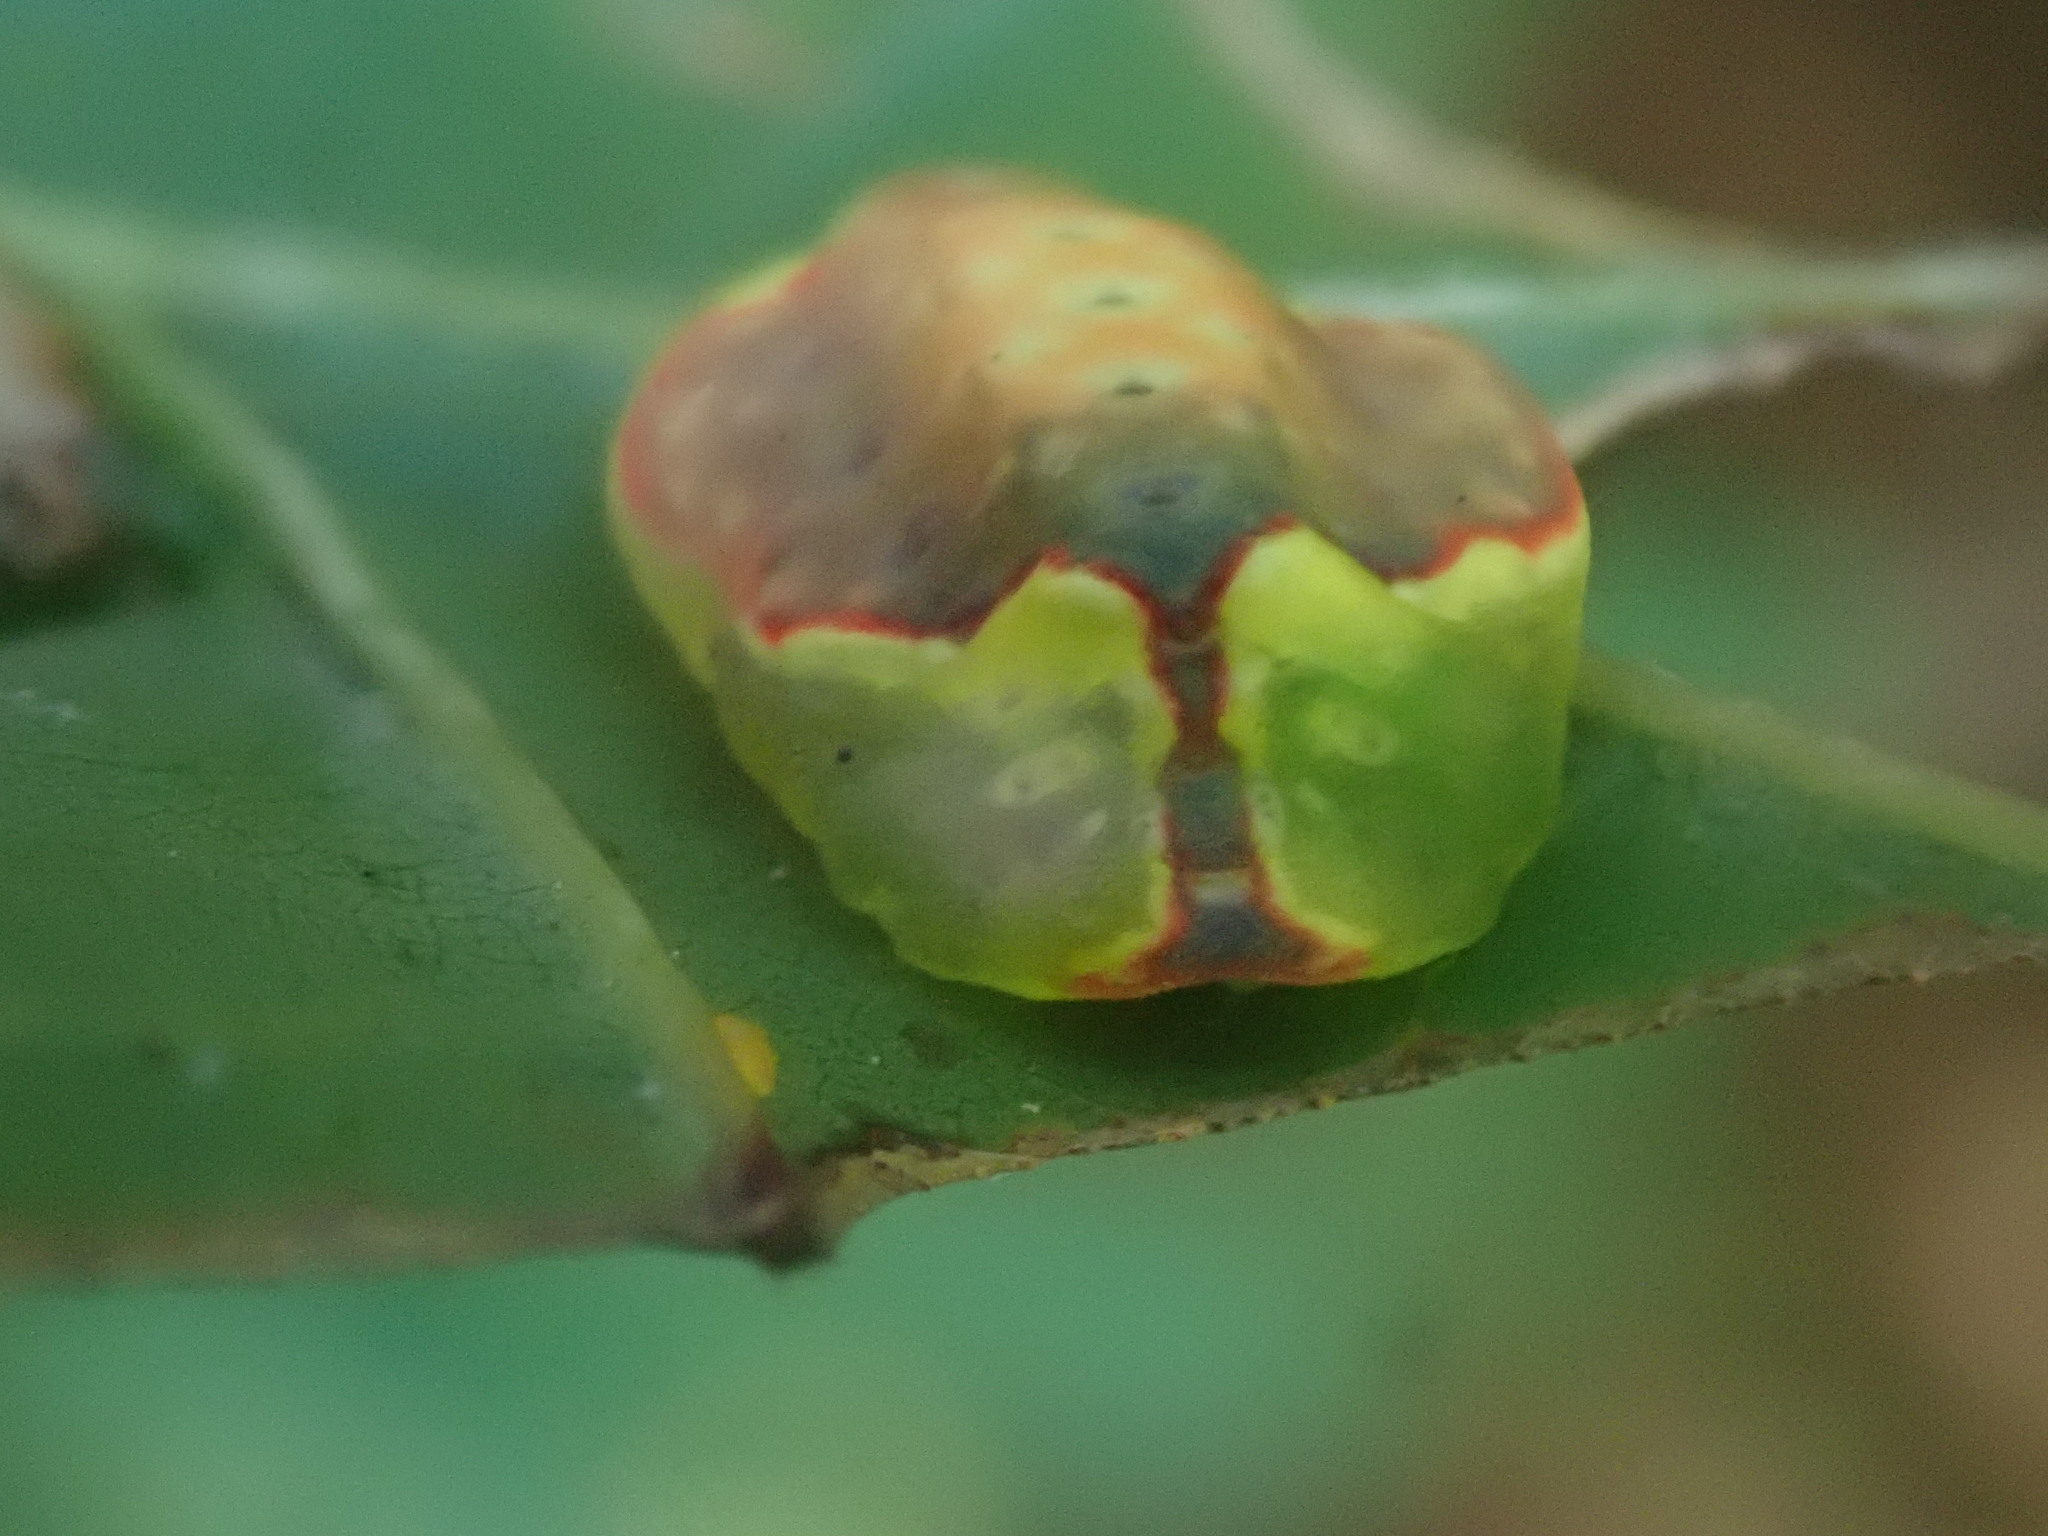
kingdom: Animalia
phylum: Arthropoda
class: Insecta
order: Lepidoptera
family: Limacodidae
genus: Tortricidia
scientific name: Tortricidia pallida
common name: Red-crossed button slug moth
